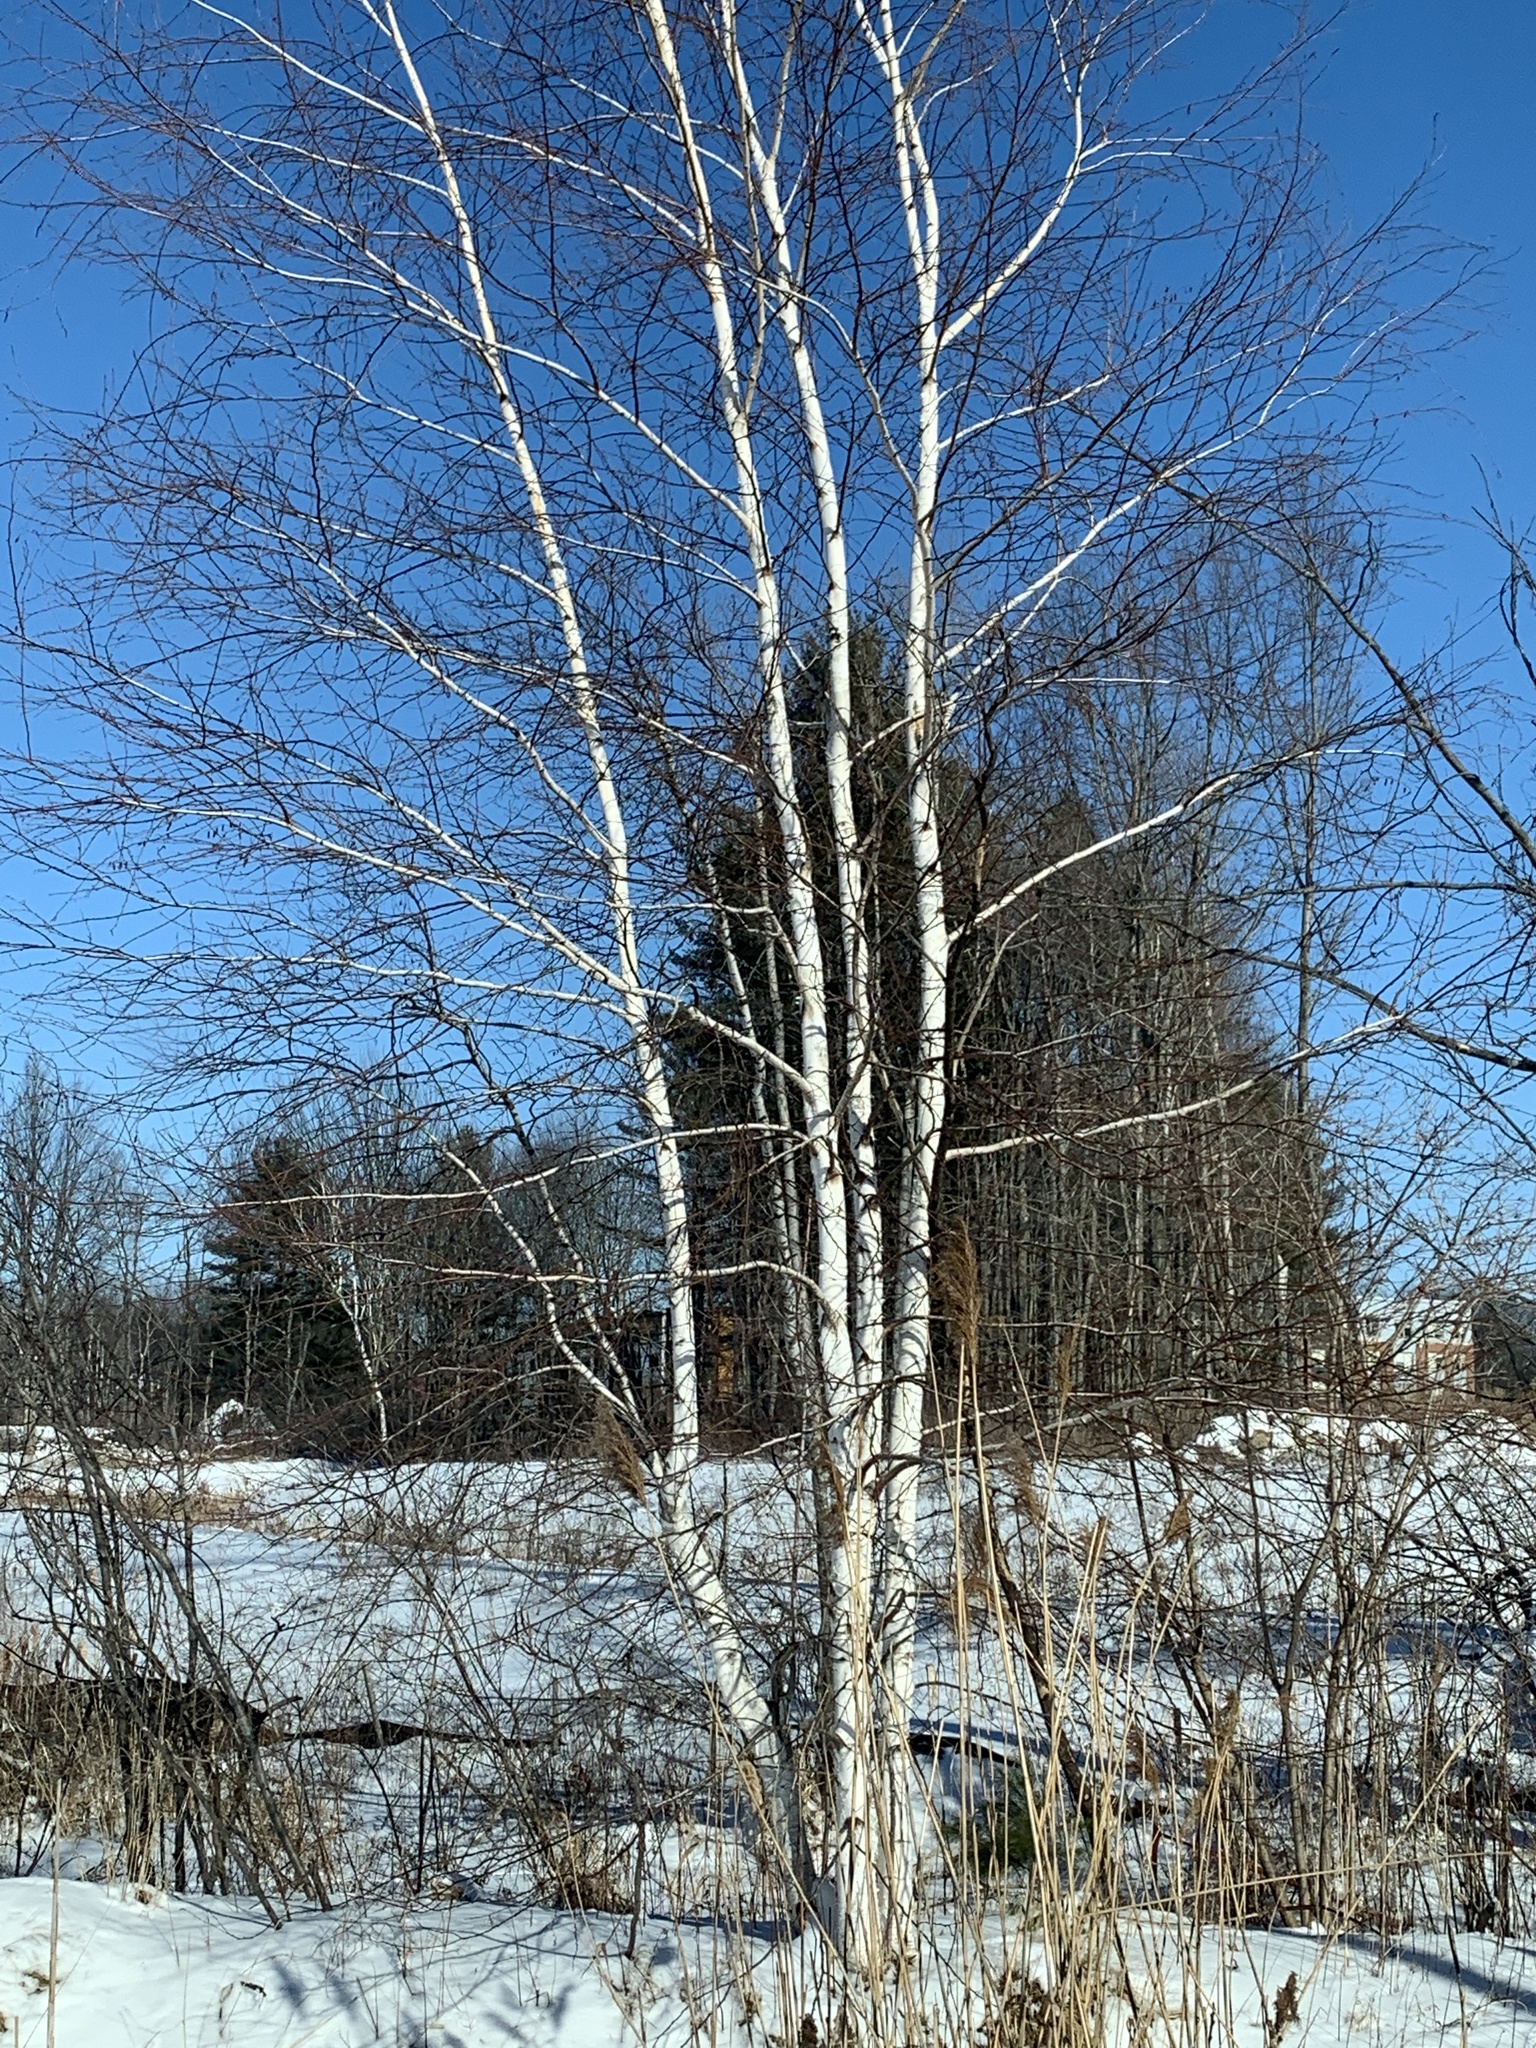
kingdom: Plantae
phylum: Tracheophyta
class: Magnoliopsida
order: Fagales
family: Betulaceae
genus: Betula
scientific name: Betula papyrifera
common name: Paper birch
